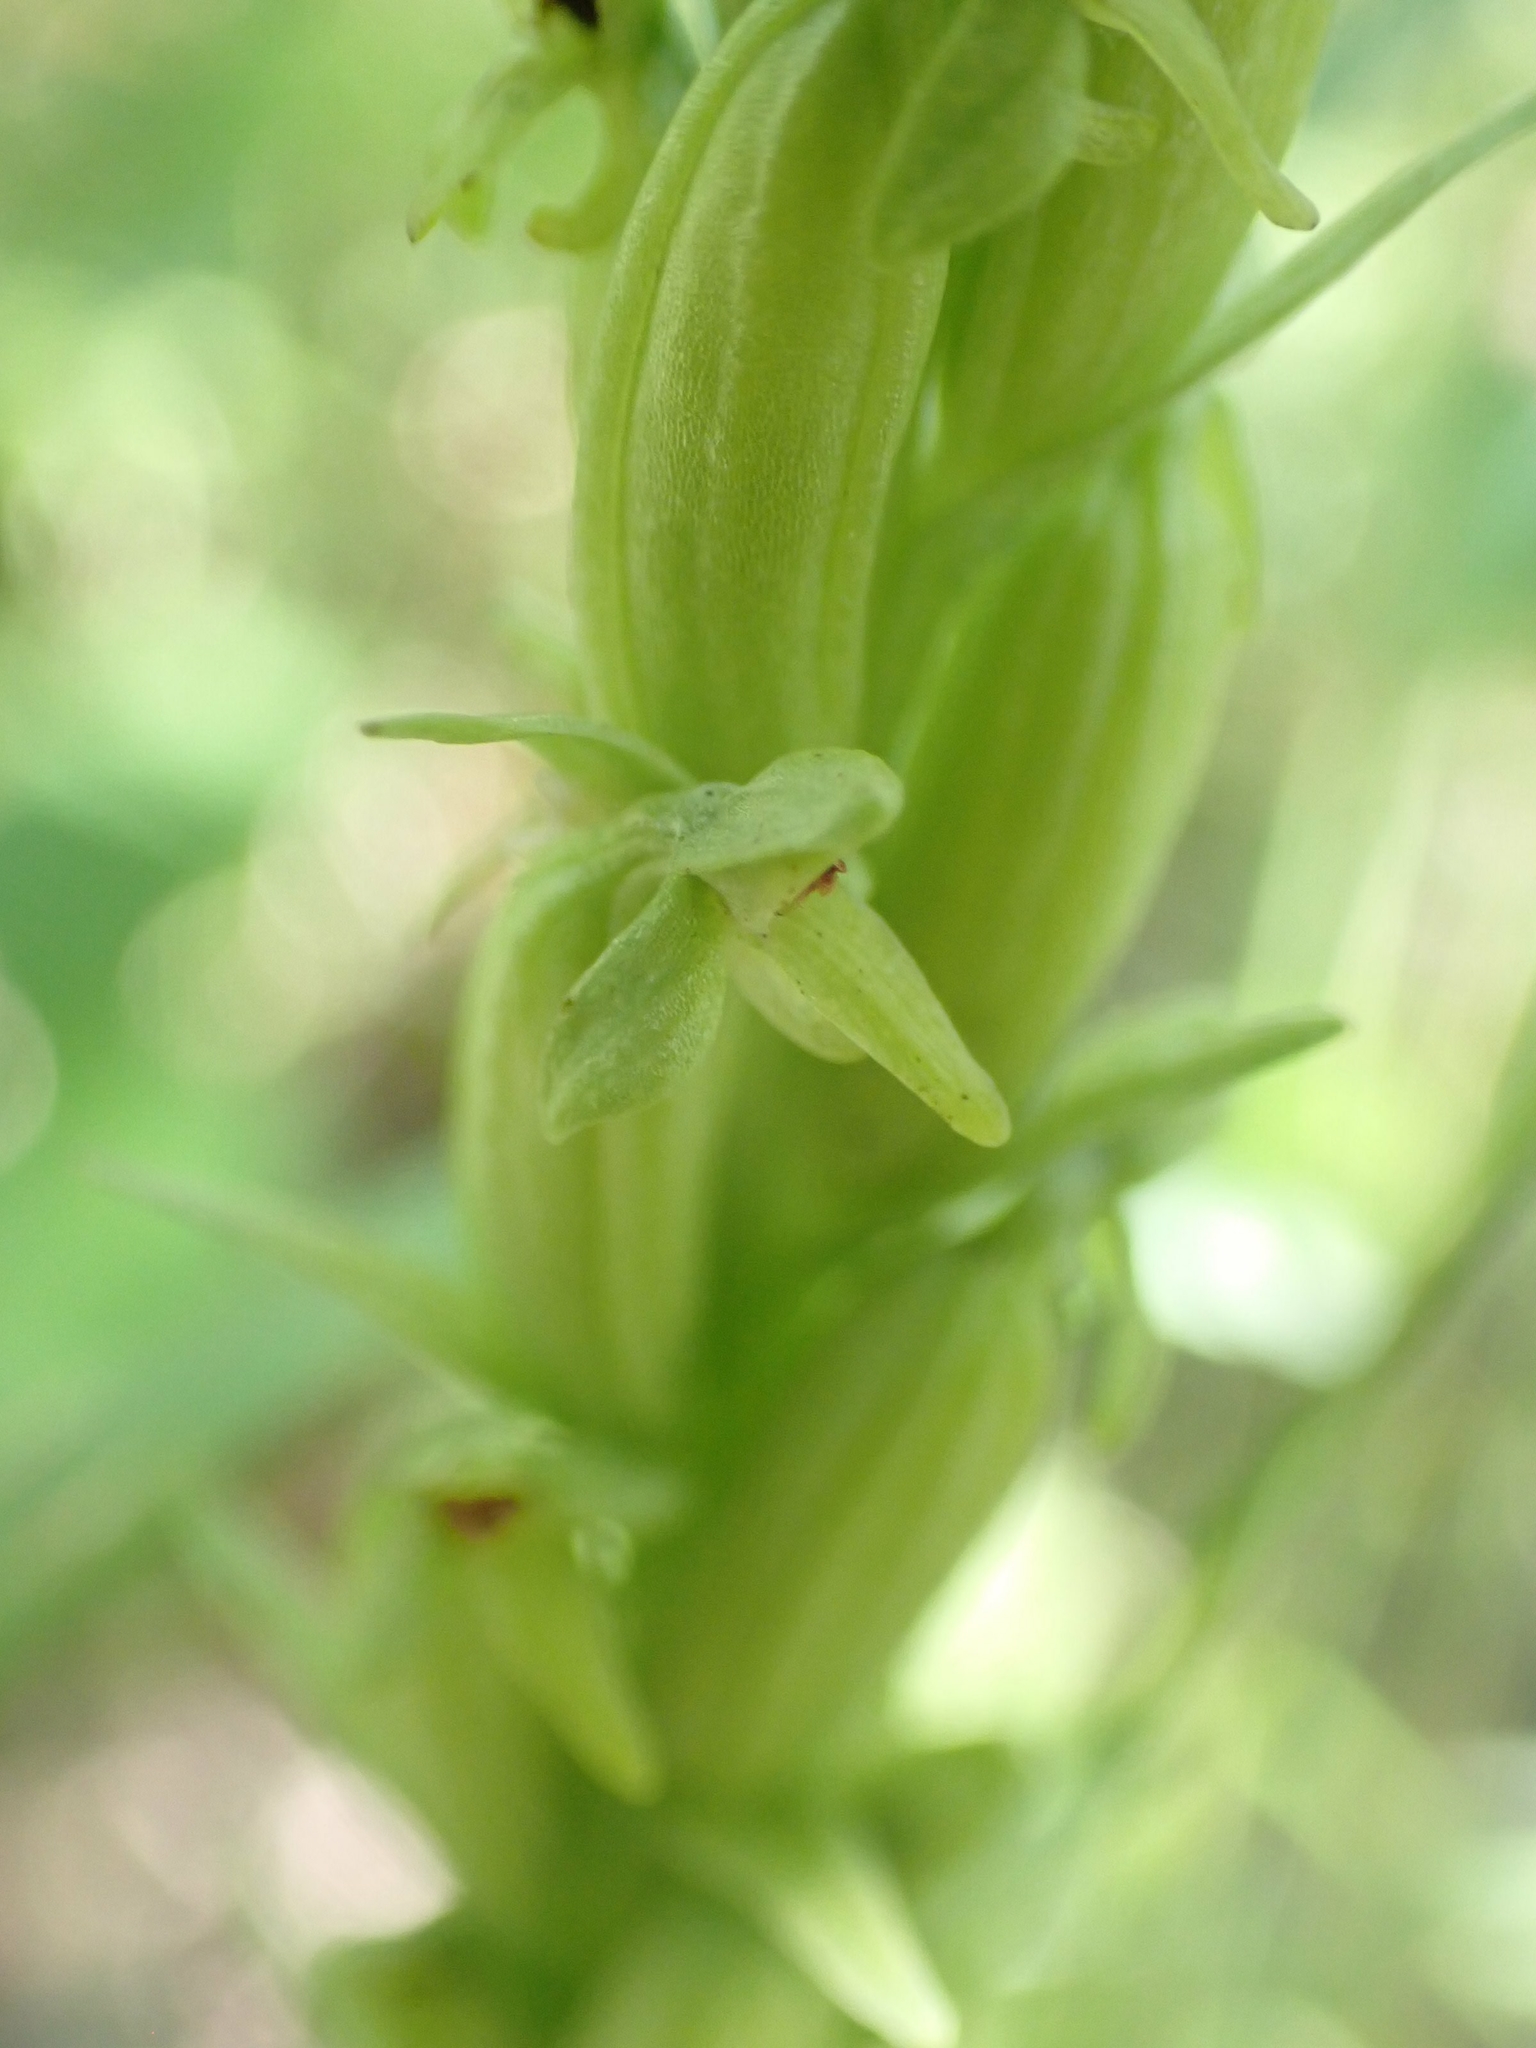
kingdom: Plantae
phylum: Tracheophyta
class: Liliopsida
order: Asparagales
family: Orchidaceae
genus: Platanthera
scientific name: Platanthera aquilonis
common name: Northern green orchid
